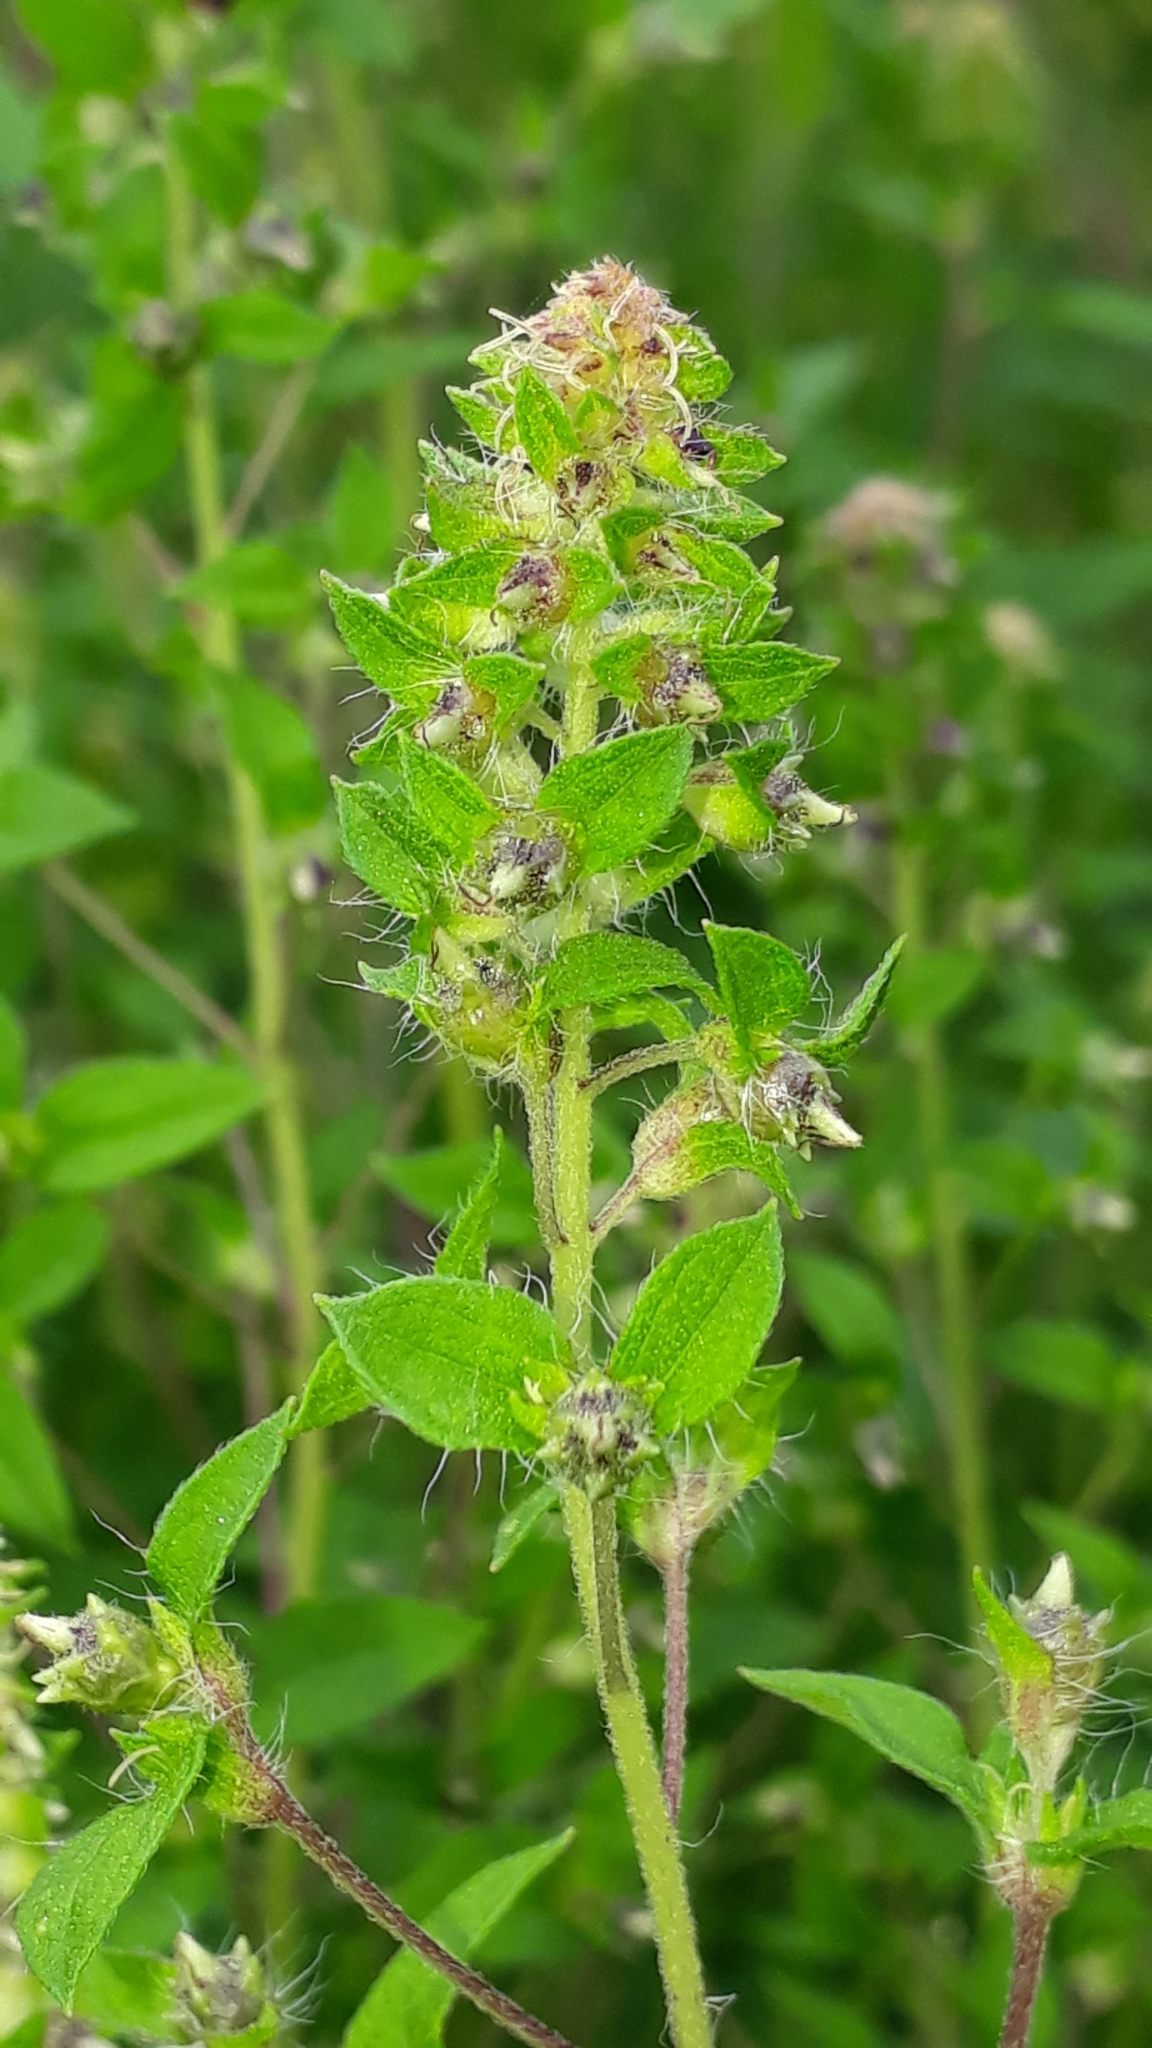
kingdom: Plantae
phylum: Tracheophyta
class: Magnoliopsida
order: Asterales
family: Asteraceae
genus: Ambrosia
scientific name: Ambrosia artemisiifolia
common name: Annual ragweed
